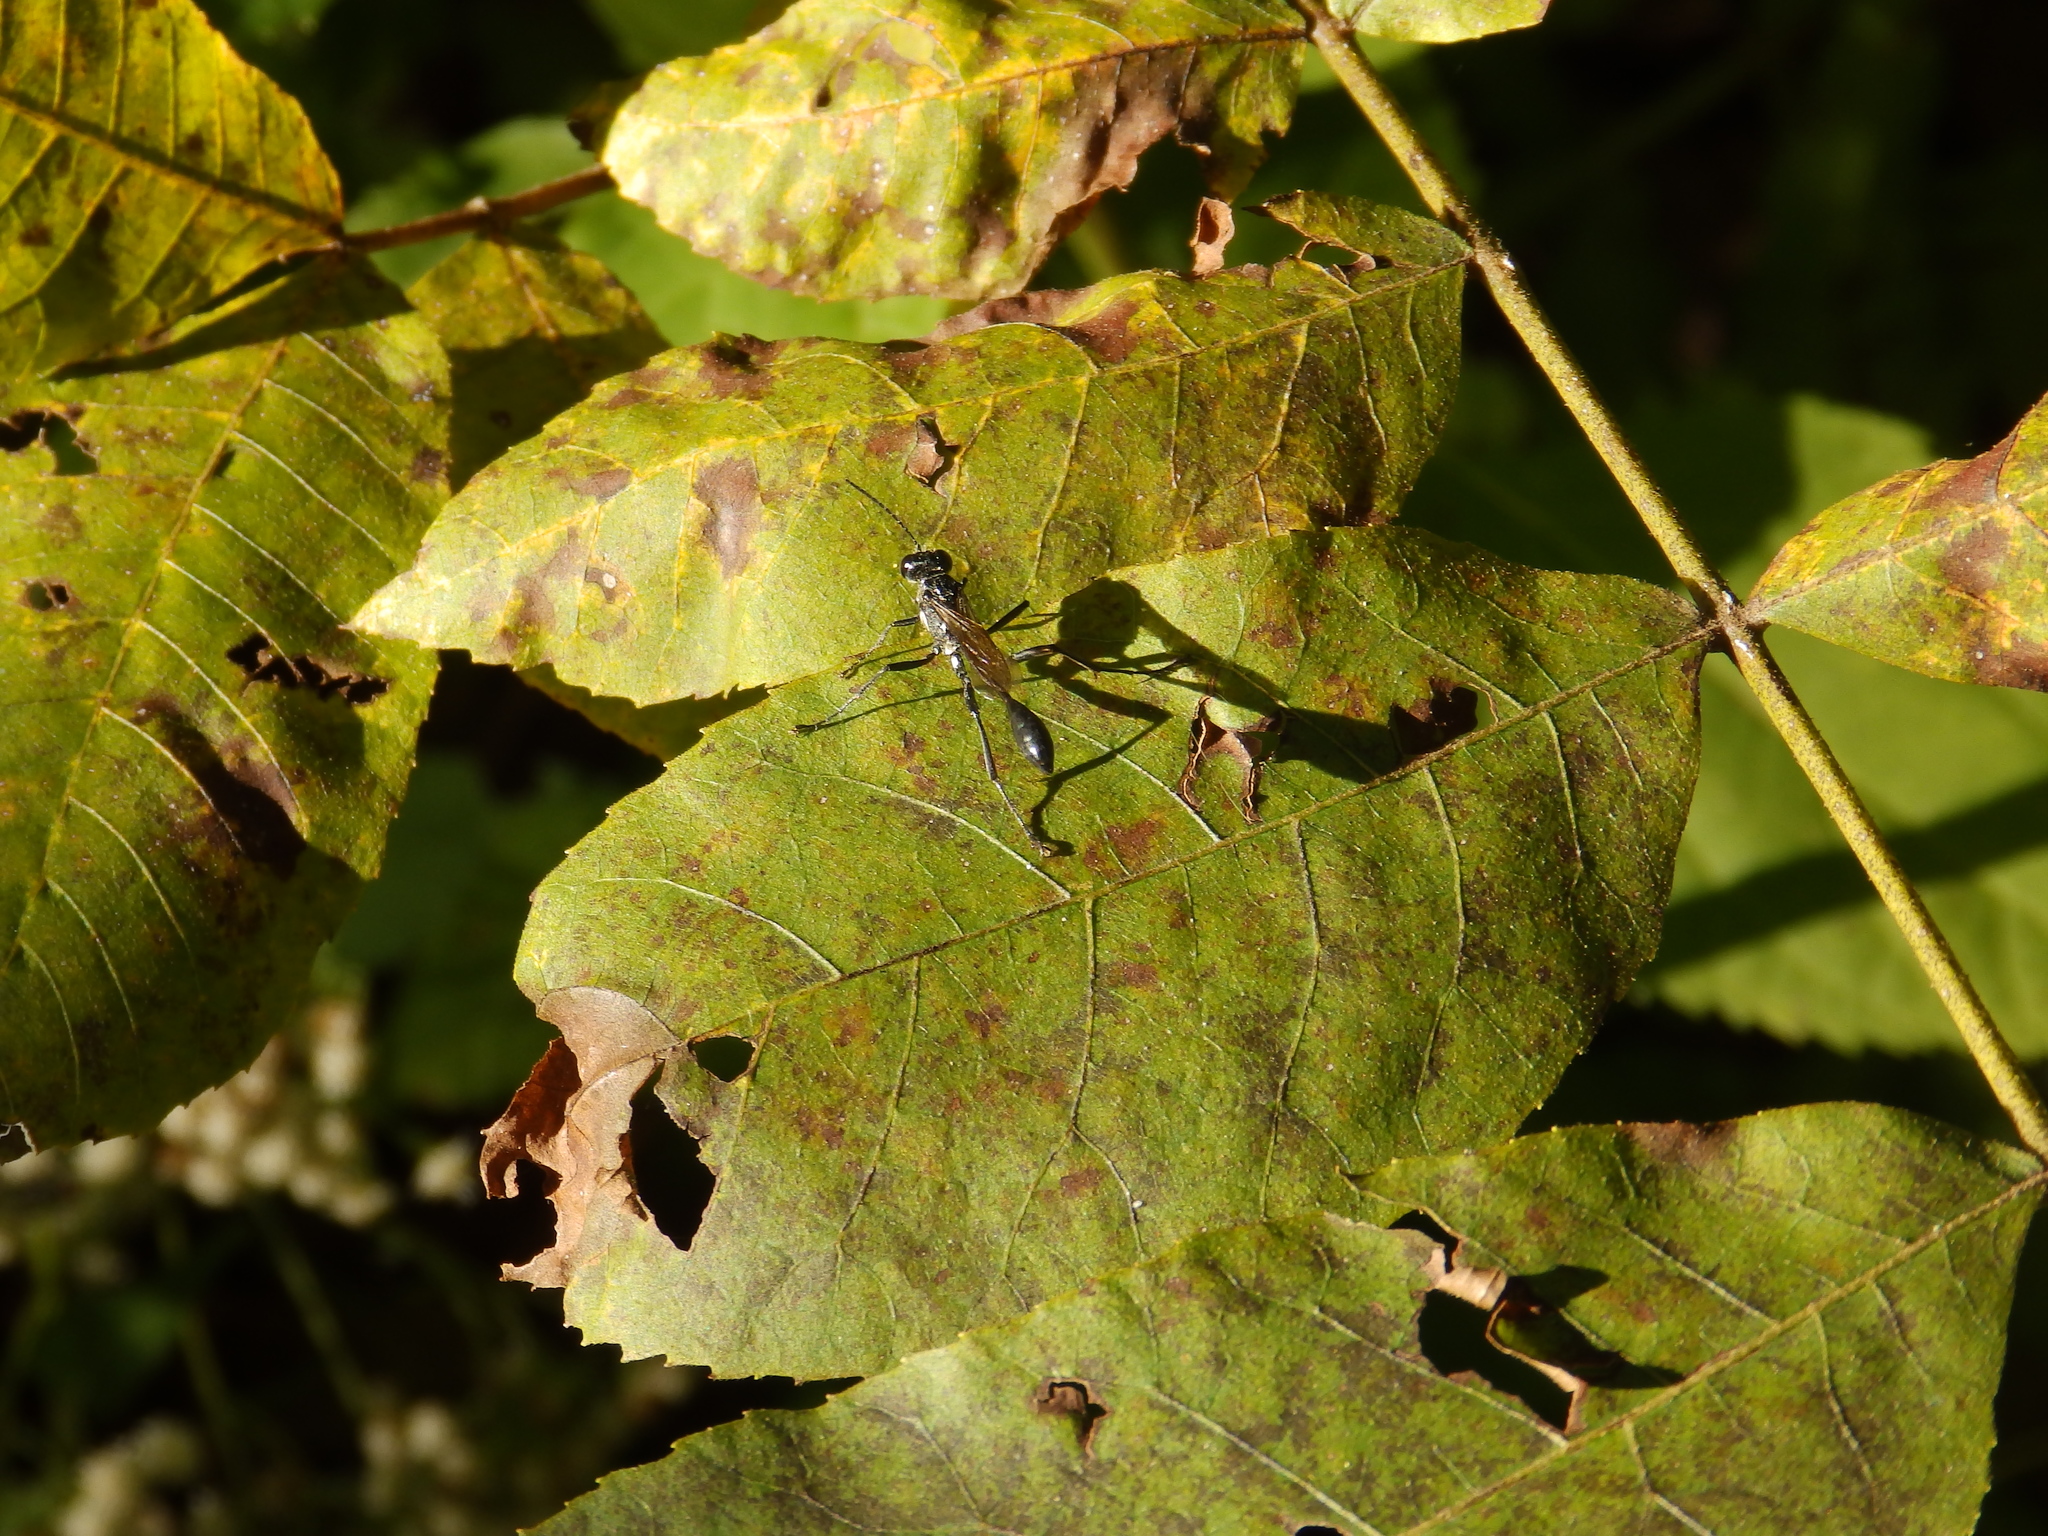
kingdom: Animalia
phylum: Arthropoda
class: Insecta
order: Hymenoptera
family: Sphecidae
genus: Eremnophila
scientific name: Eremnophila aureonotata
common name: Gold-marked thread-waisted wasp
